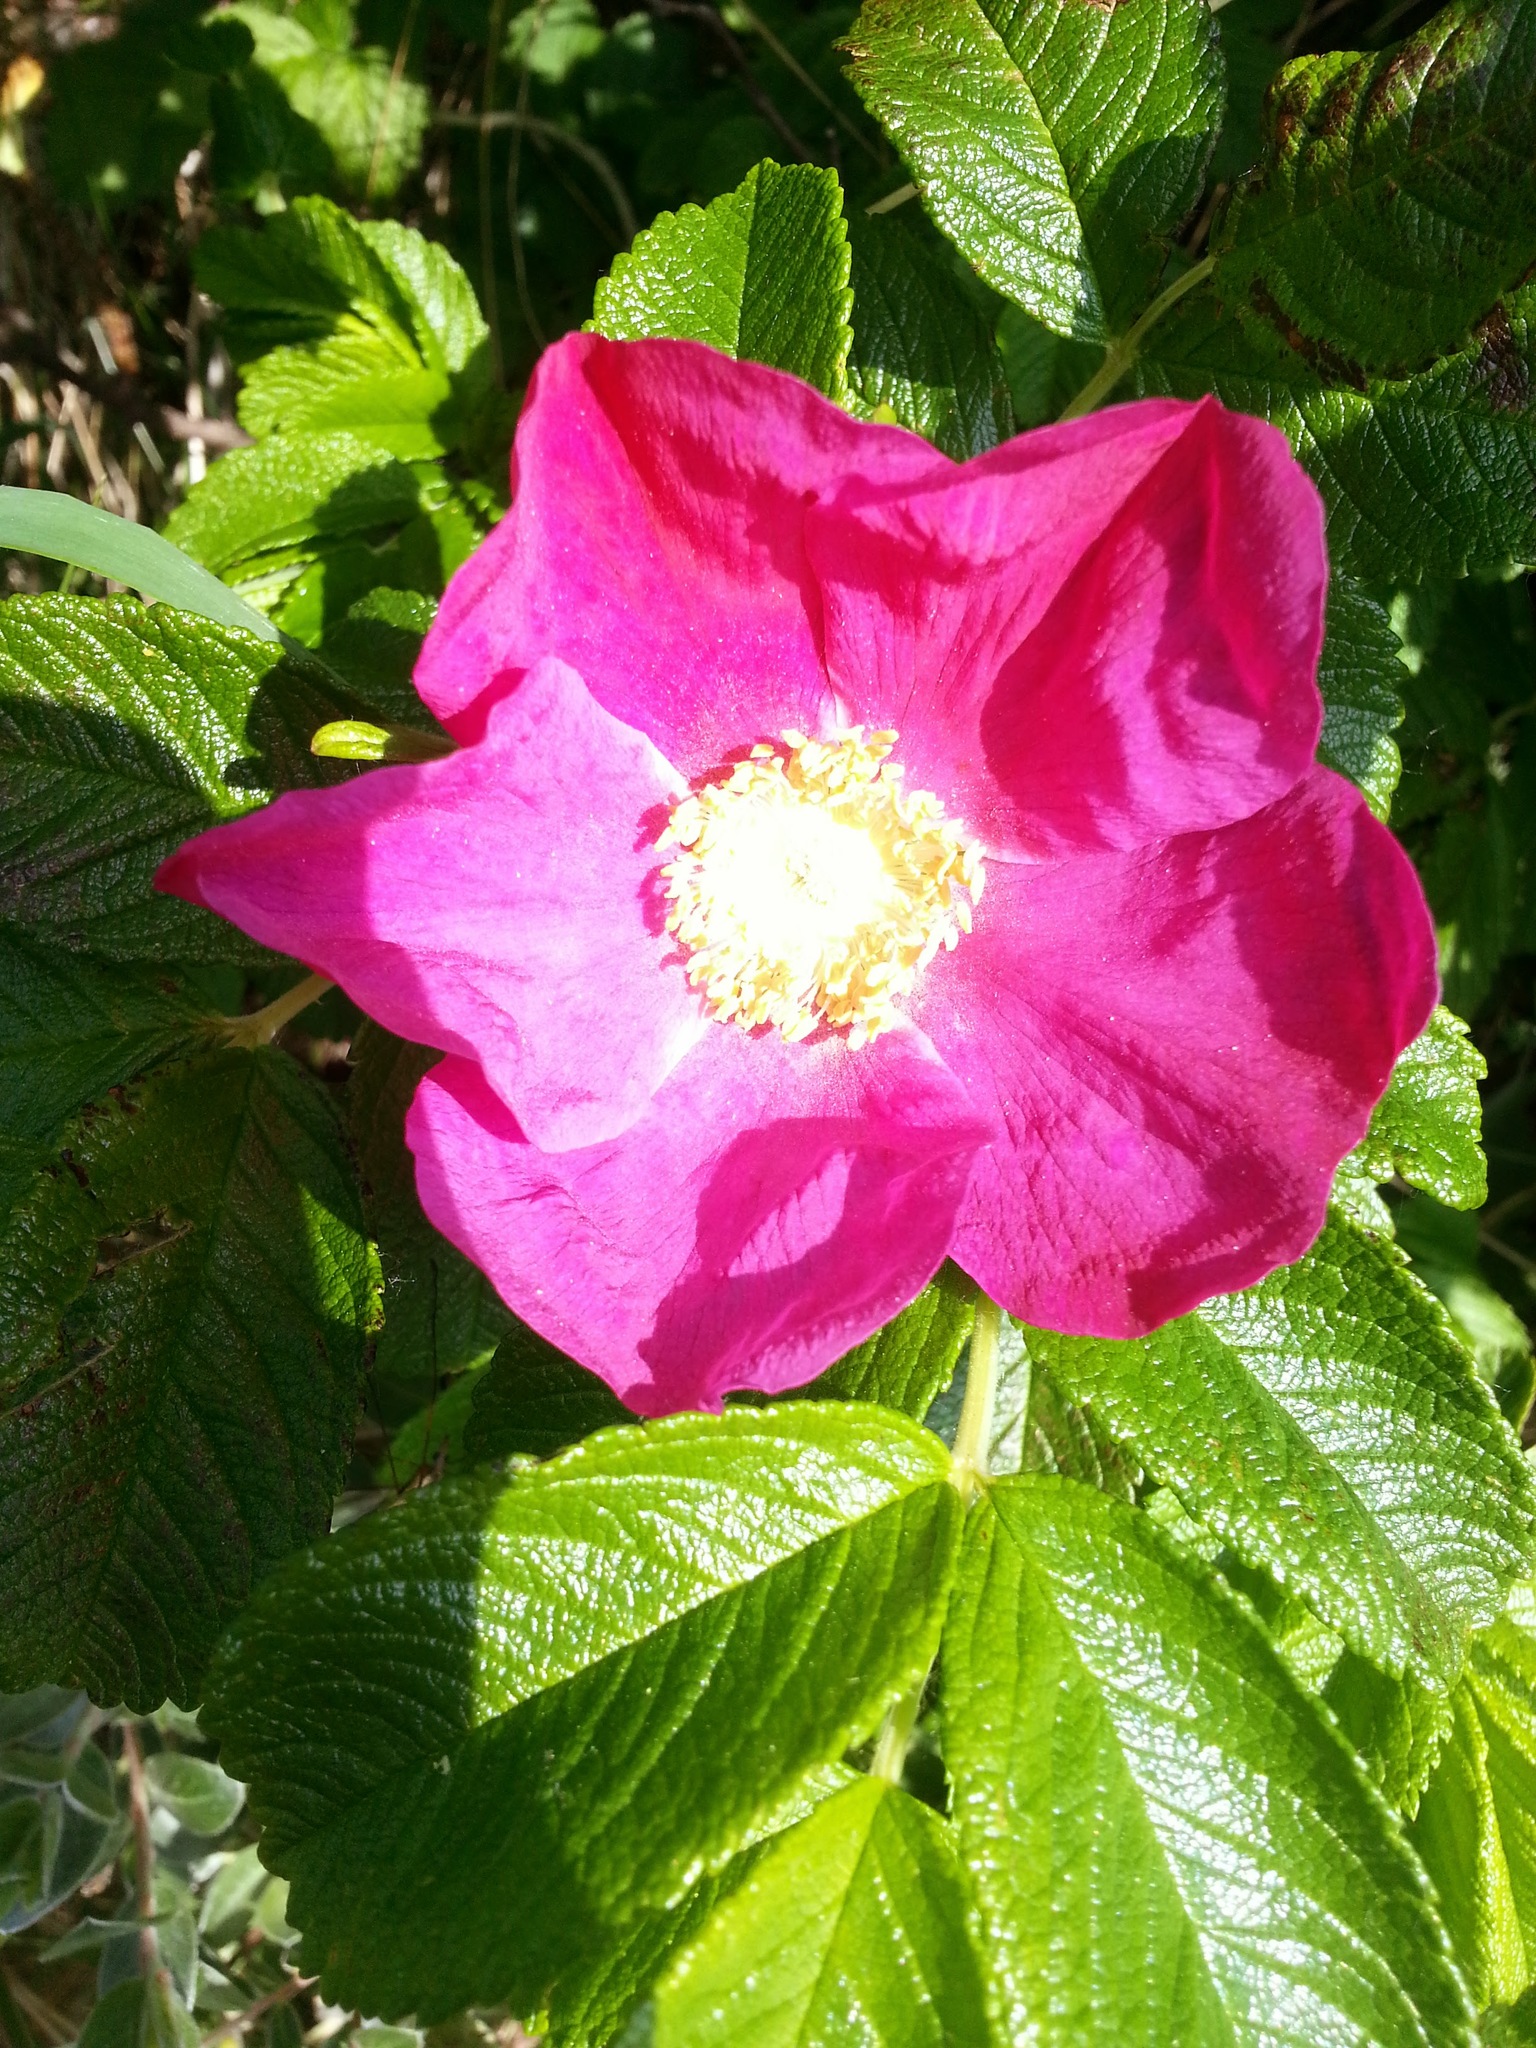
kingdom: Plantae
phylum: Tracheophyta
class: Magnoliopsida
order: Rosales
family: Rosaceae
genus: Rosa
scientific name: Rosa rugosa
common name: Japanese rose
